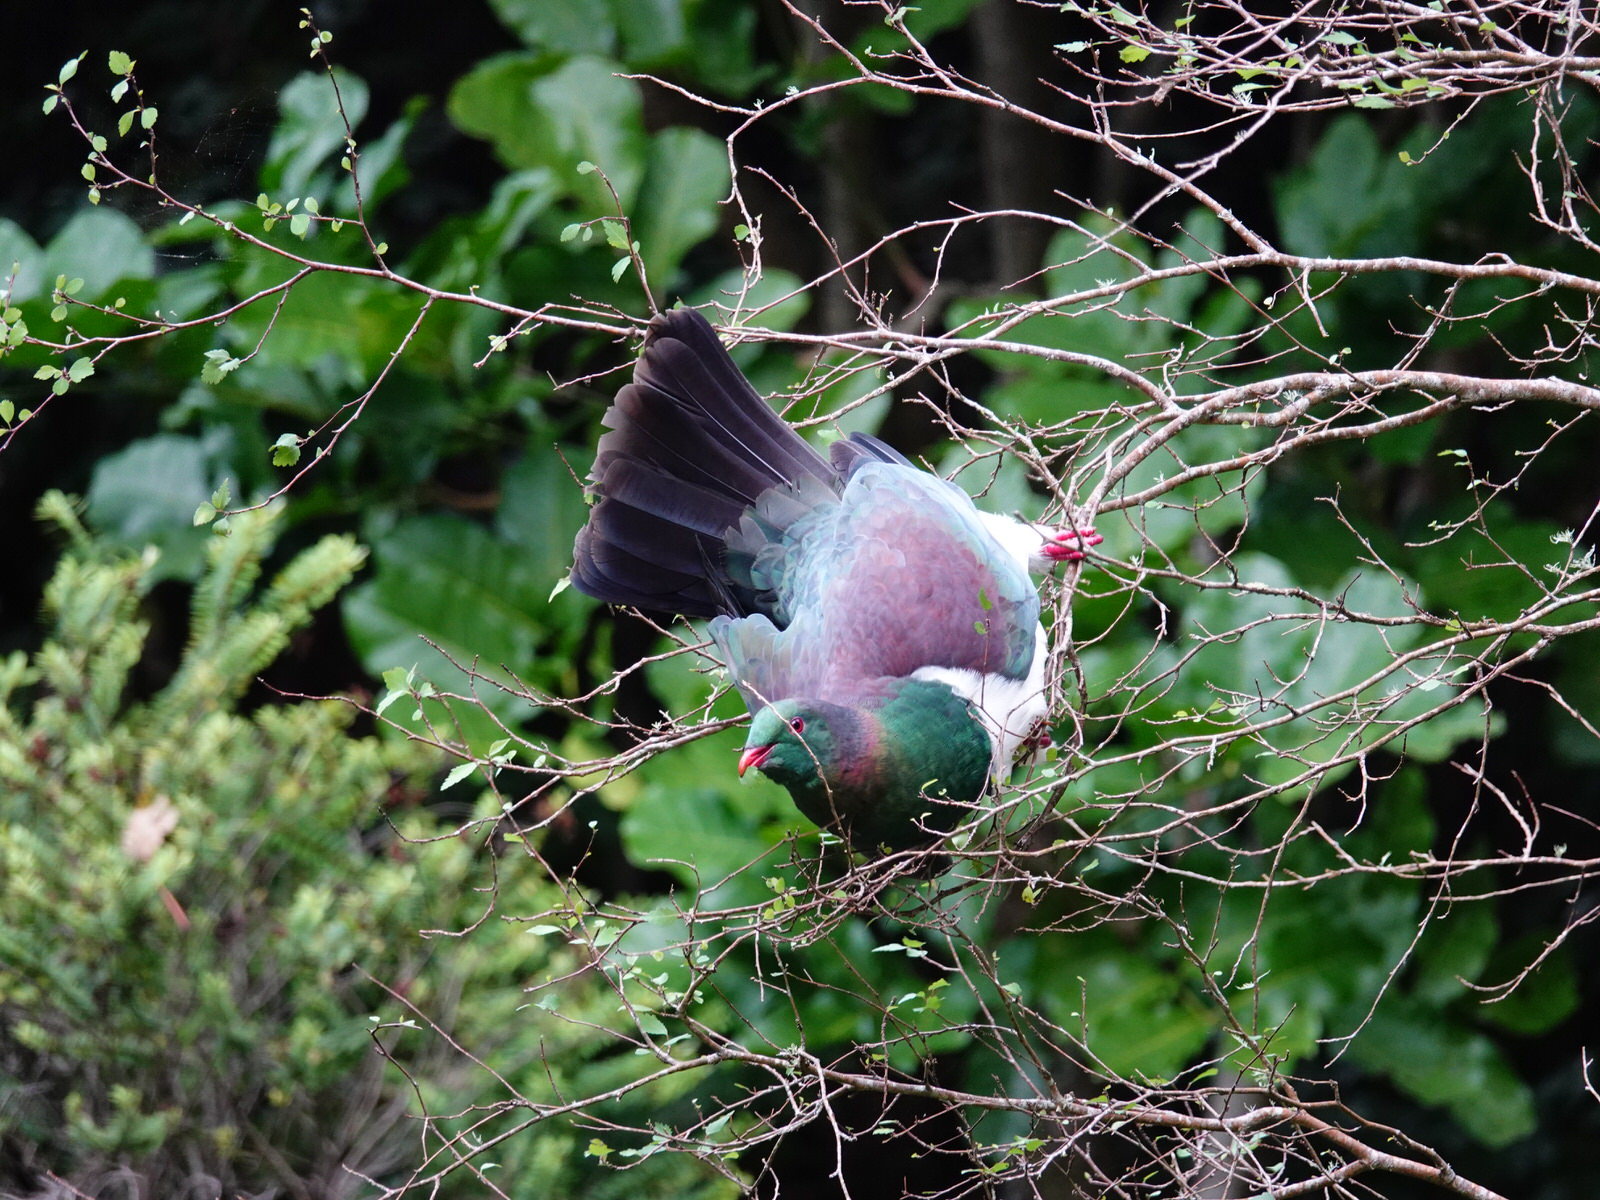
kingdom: Animalia
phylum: Chordata
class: Aves
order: Columbiformes
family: Columbidae
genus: Hemiphaga
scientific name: Hemiphaga novaeseelandiae
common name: New zealand pigeon
